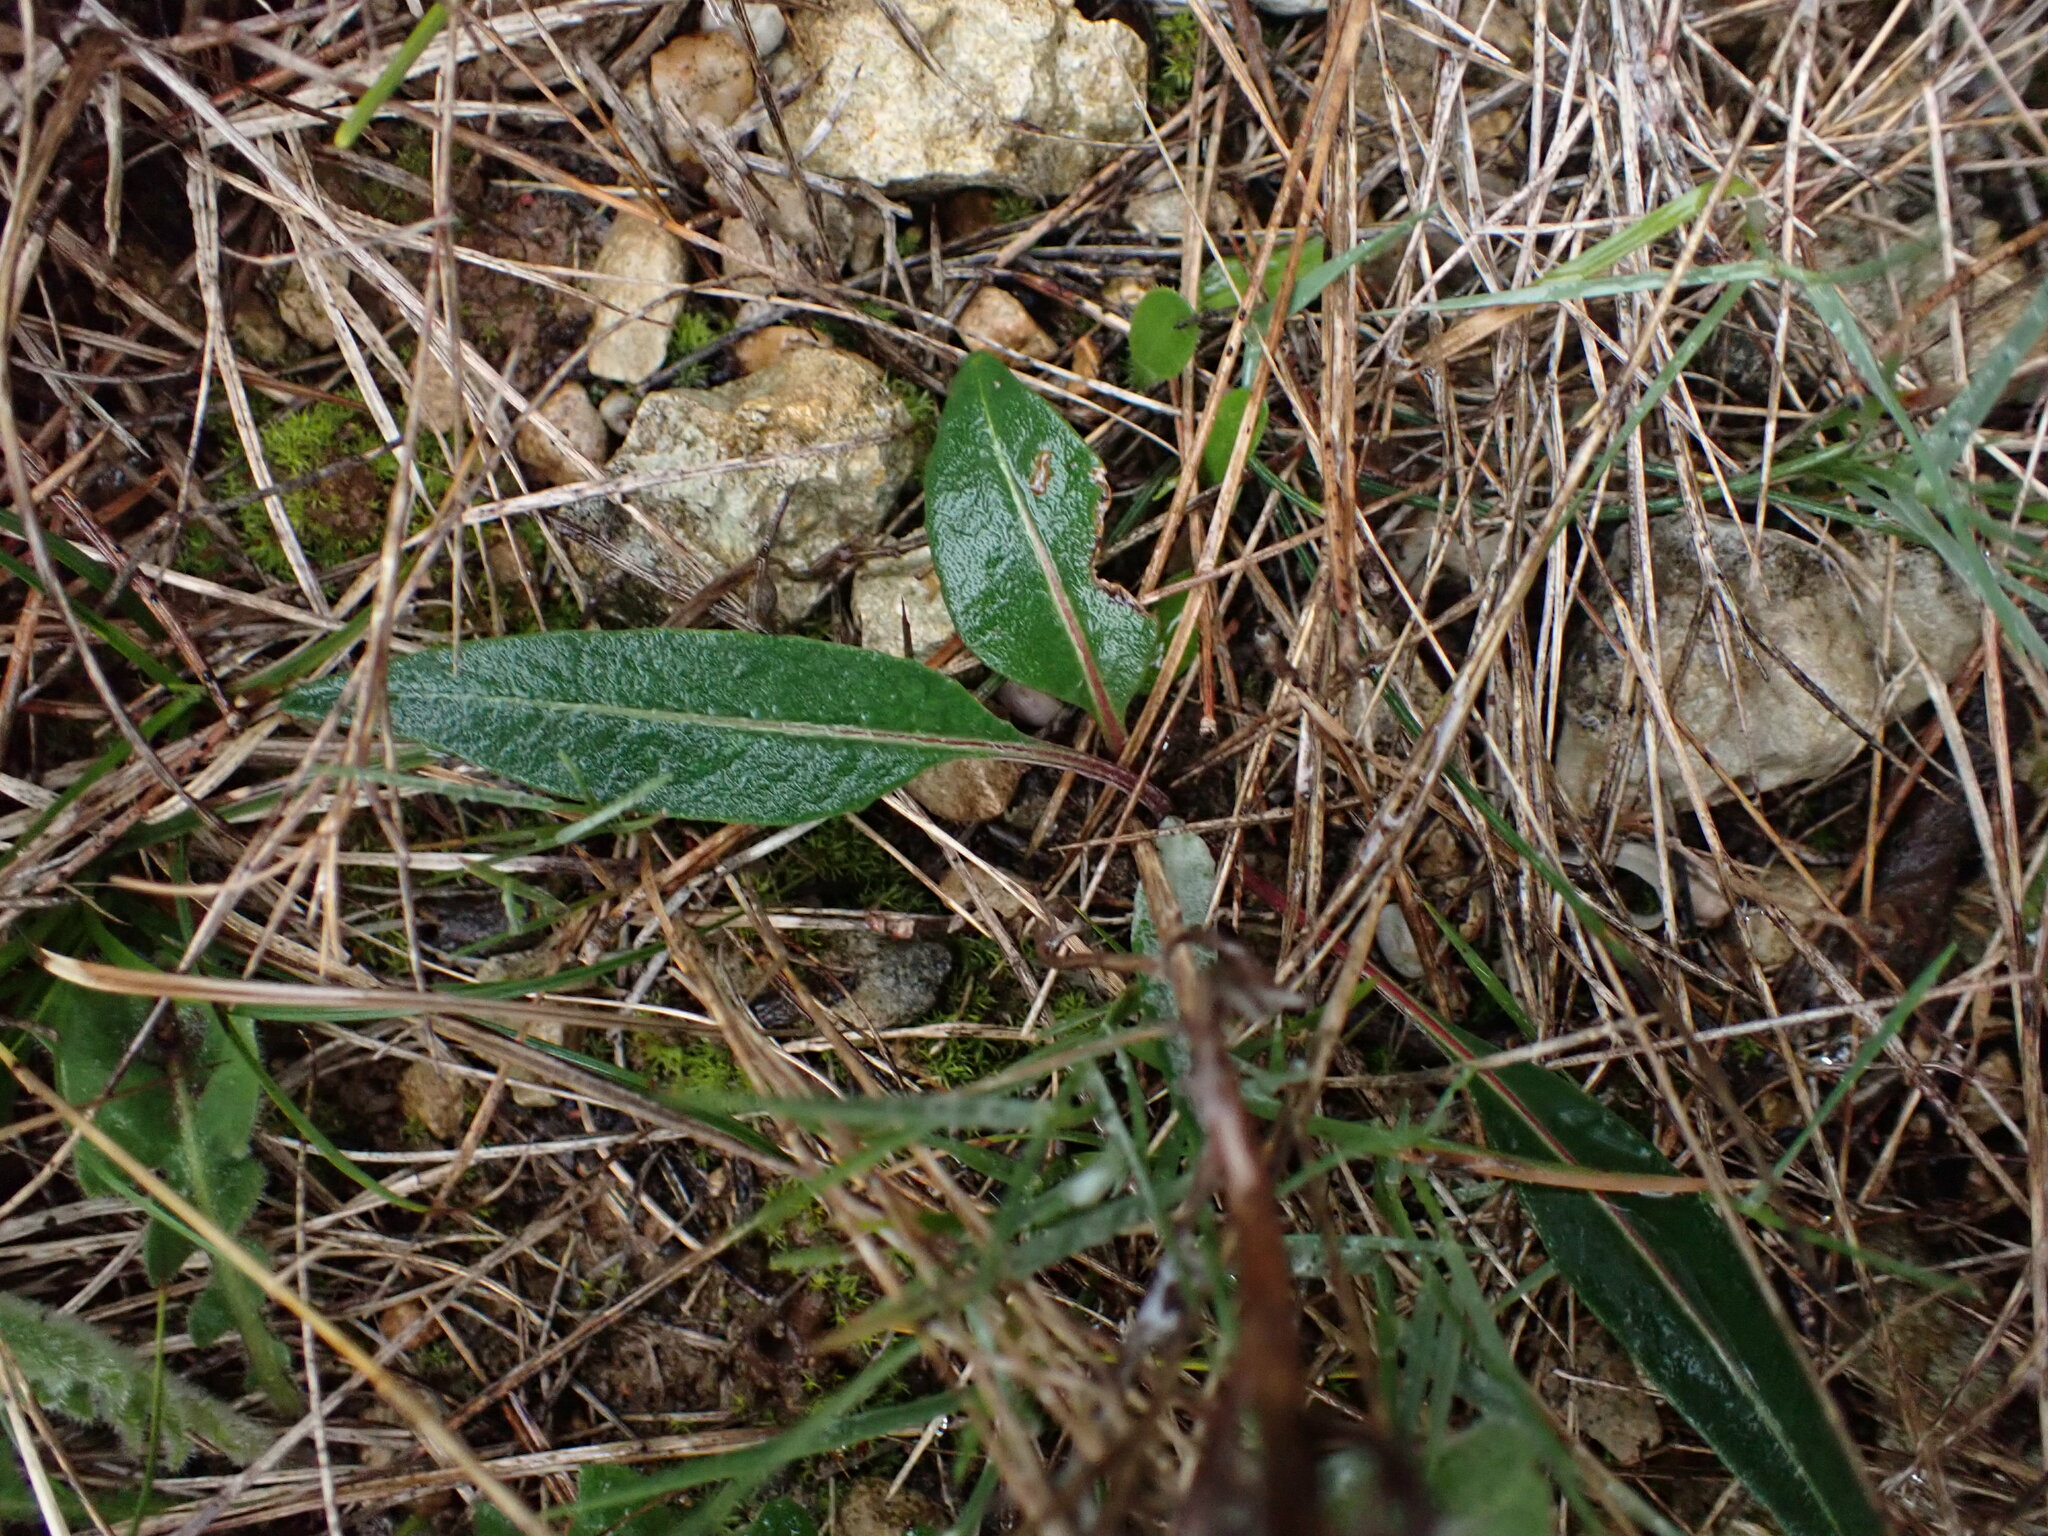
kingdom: Plantae
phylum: Tracheophyta
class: Magnoliopsida
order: Asterales
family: Asteraceae
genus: Leuzea
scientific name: Leuzea conifera
